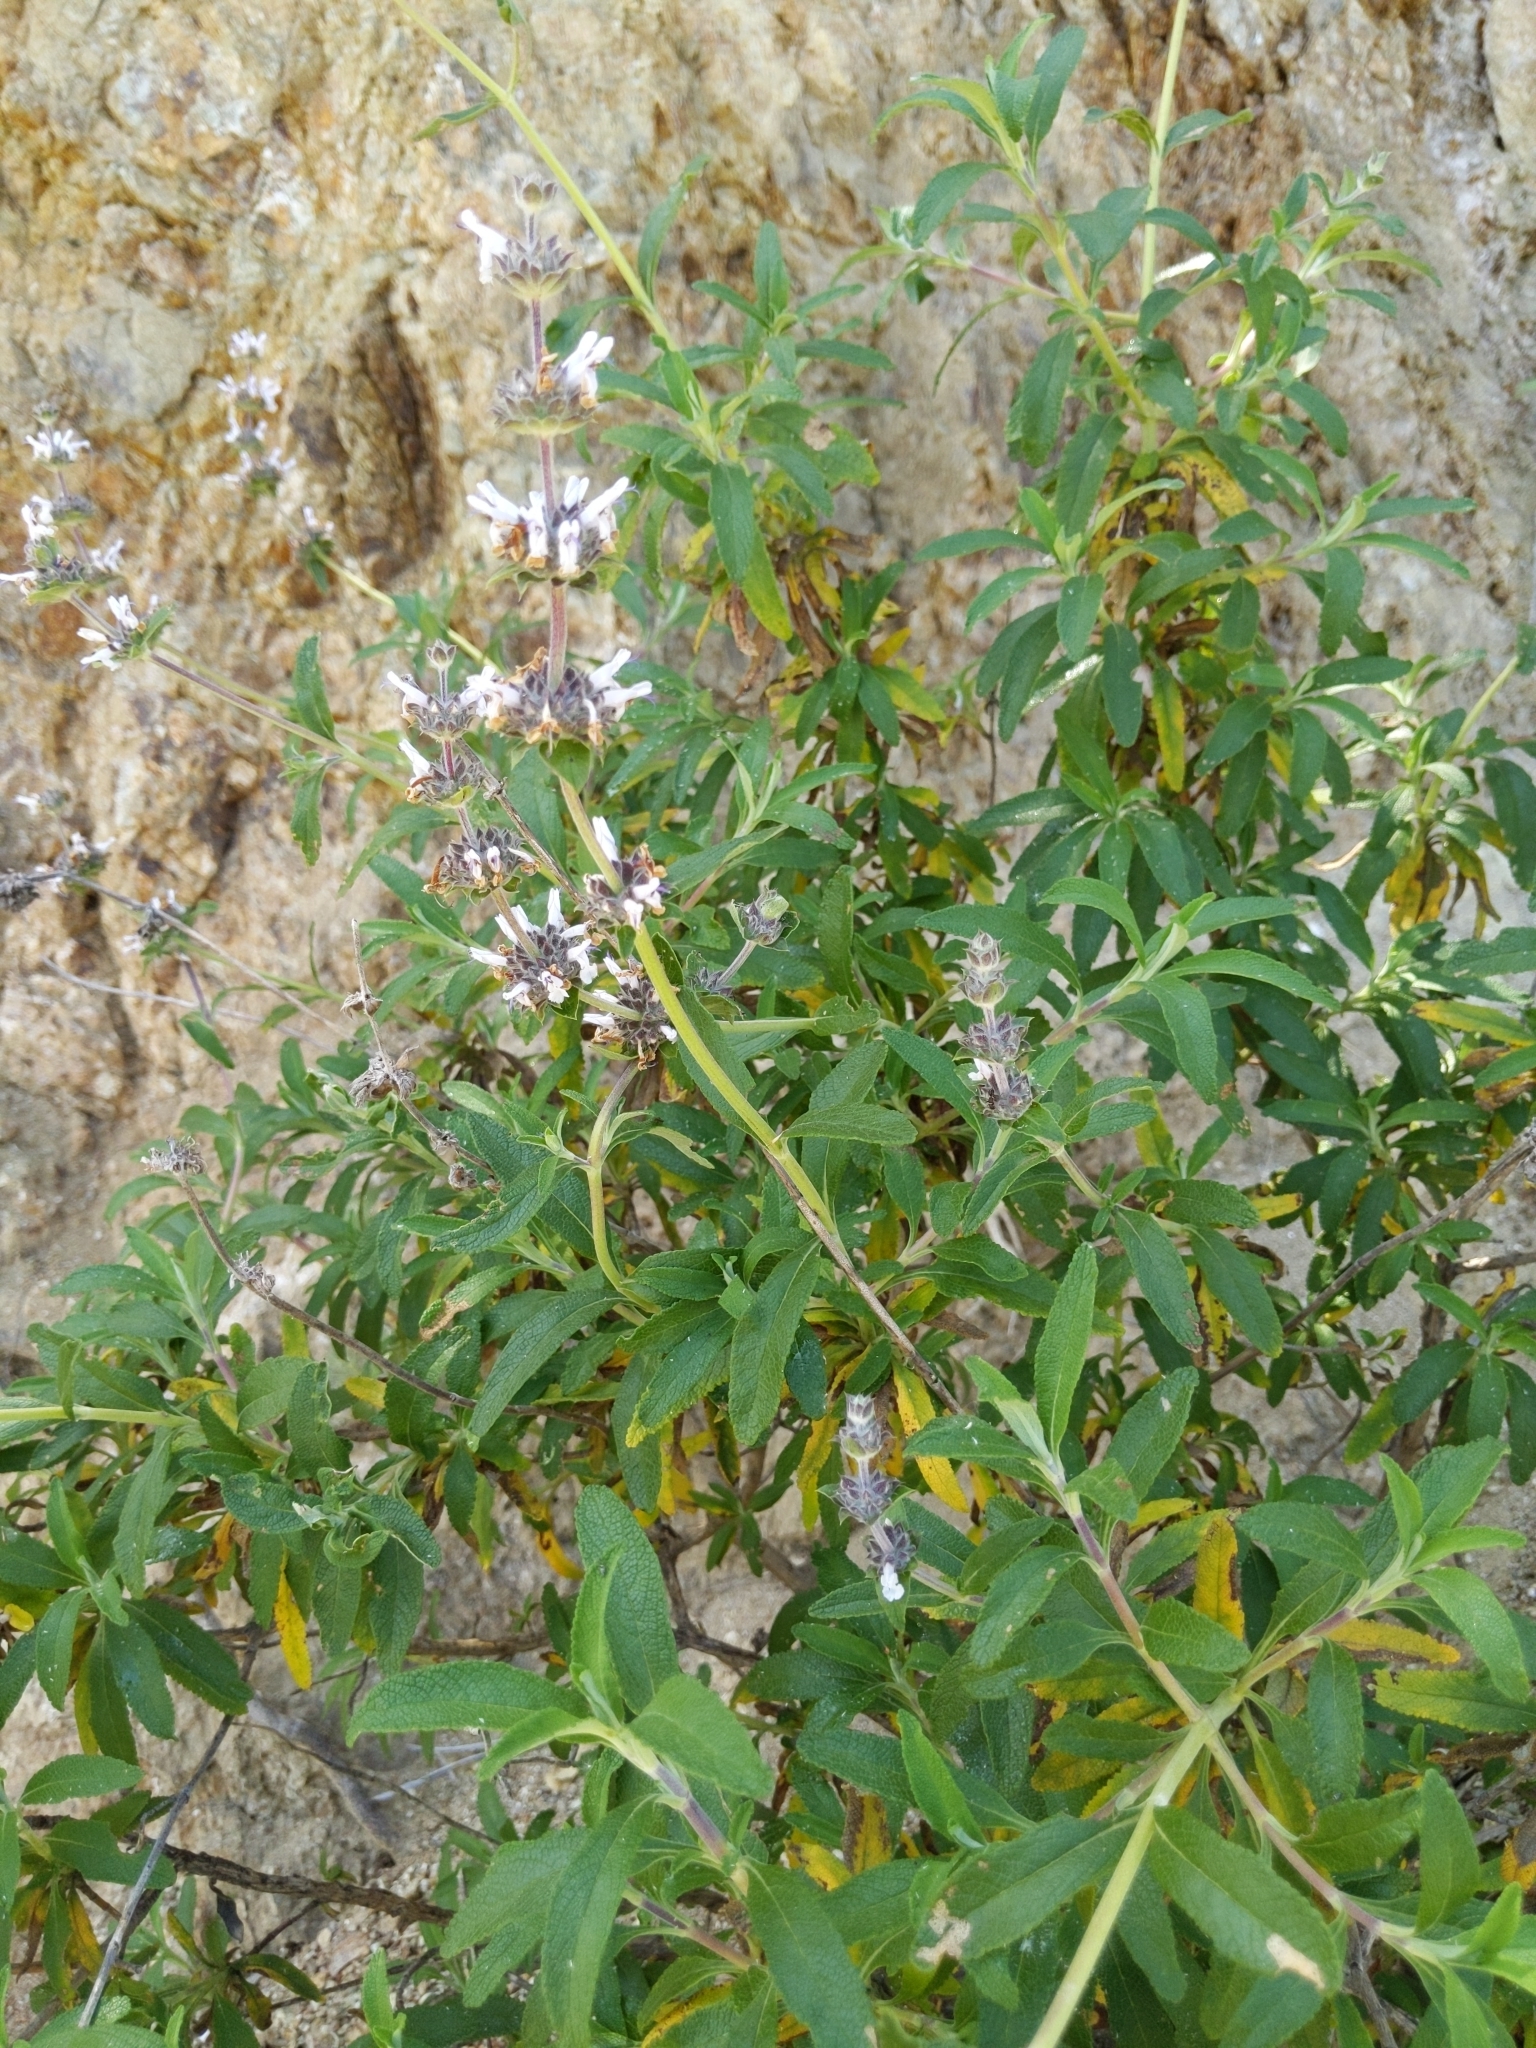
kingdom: Plantae
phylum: Tracheophyta
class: Magnoliopsida
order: Lamiales
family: Lamiaceae
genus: Salvia
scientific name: Salvia mellifera
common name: Black sage
